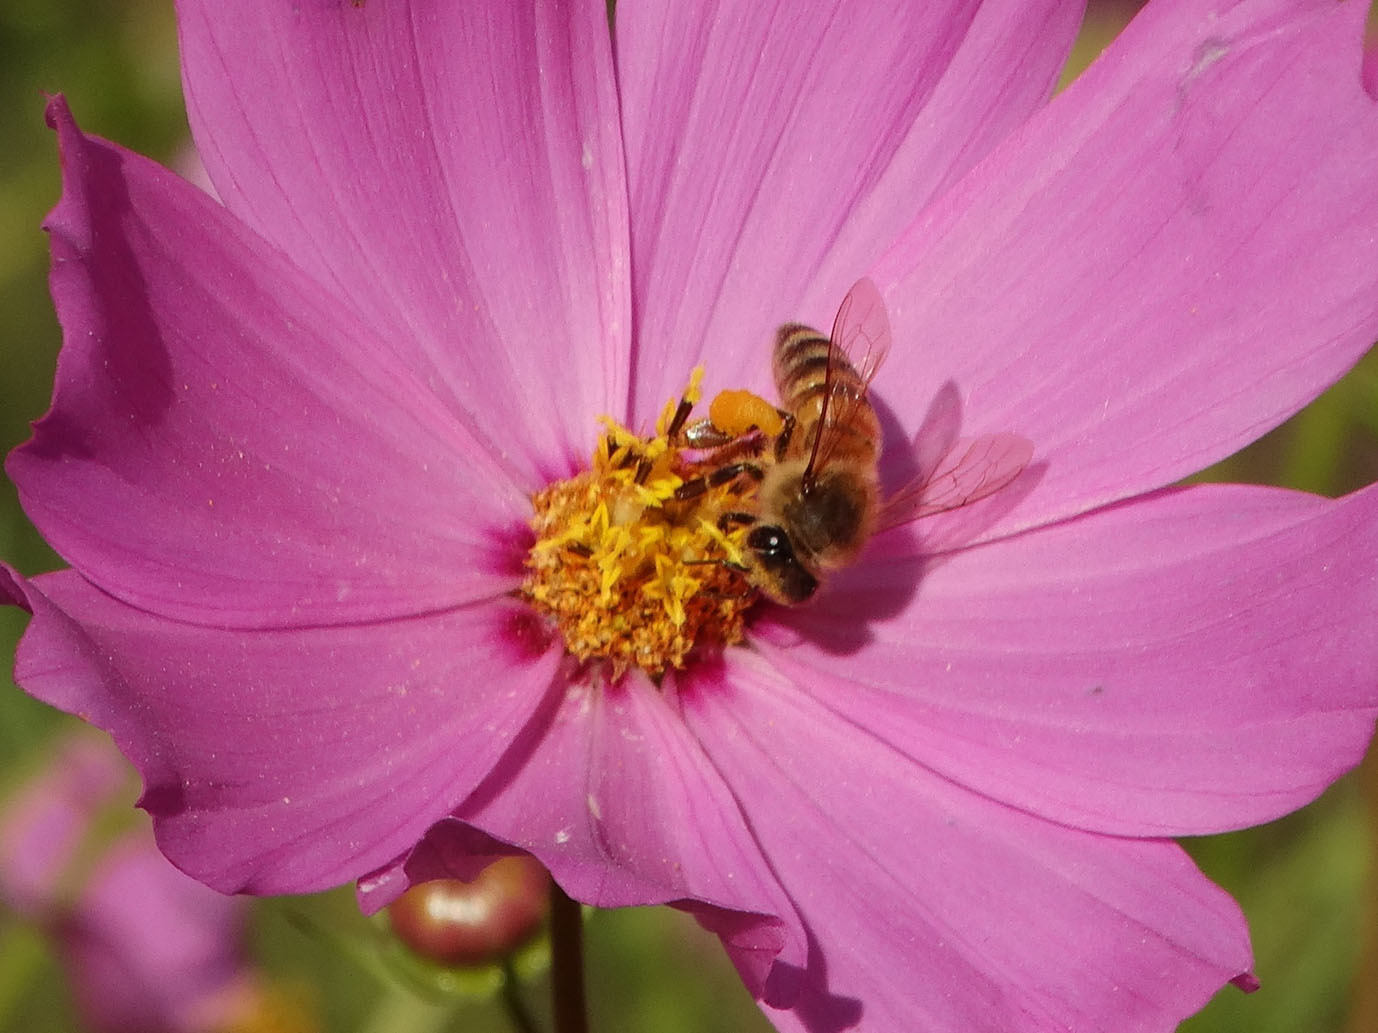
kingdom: Animalia
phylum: Arthropoda
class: Insecta
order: Hymenoptera
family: Apidae
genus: Apis
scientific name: Apis mellifera
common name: Honey bee
